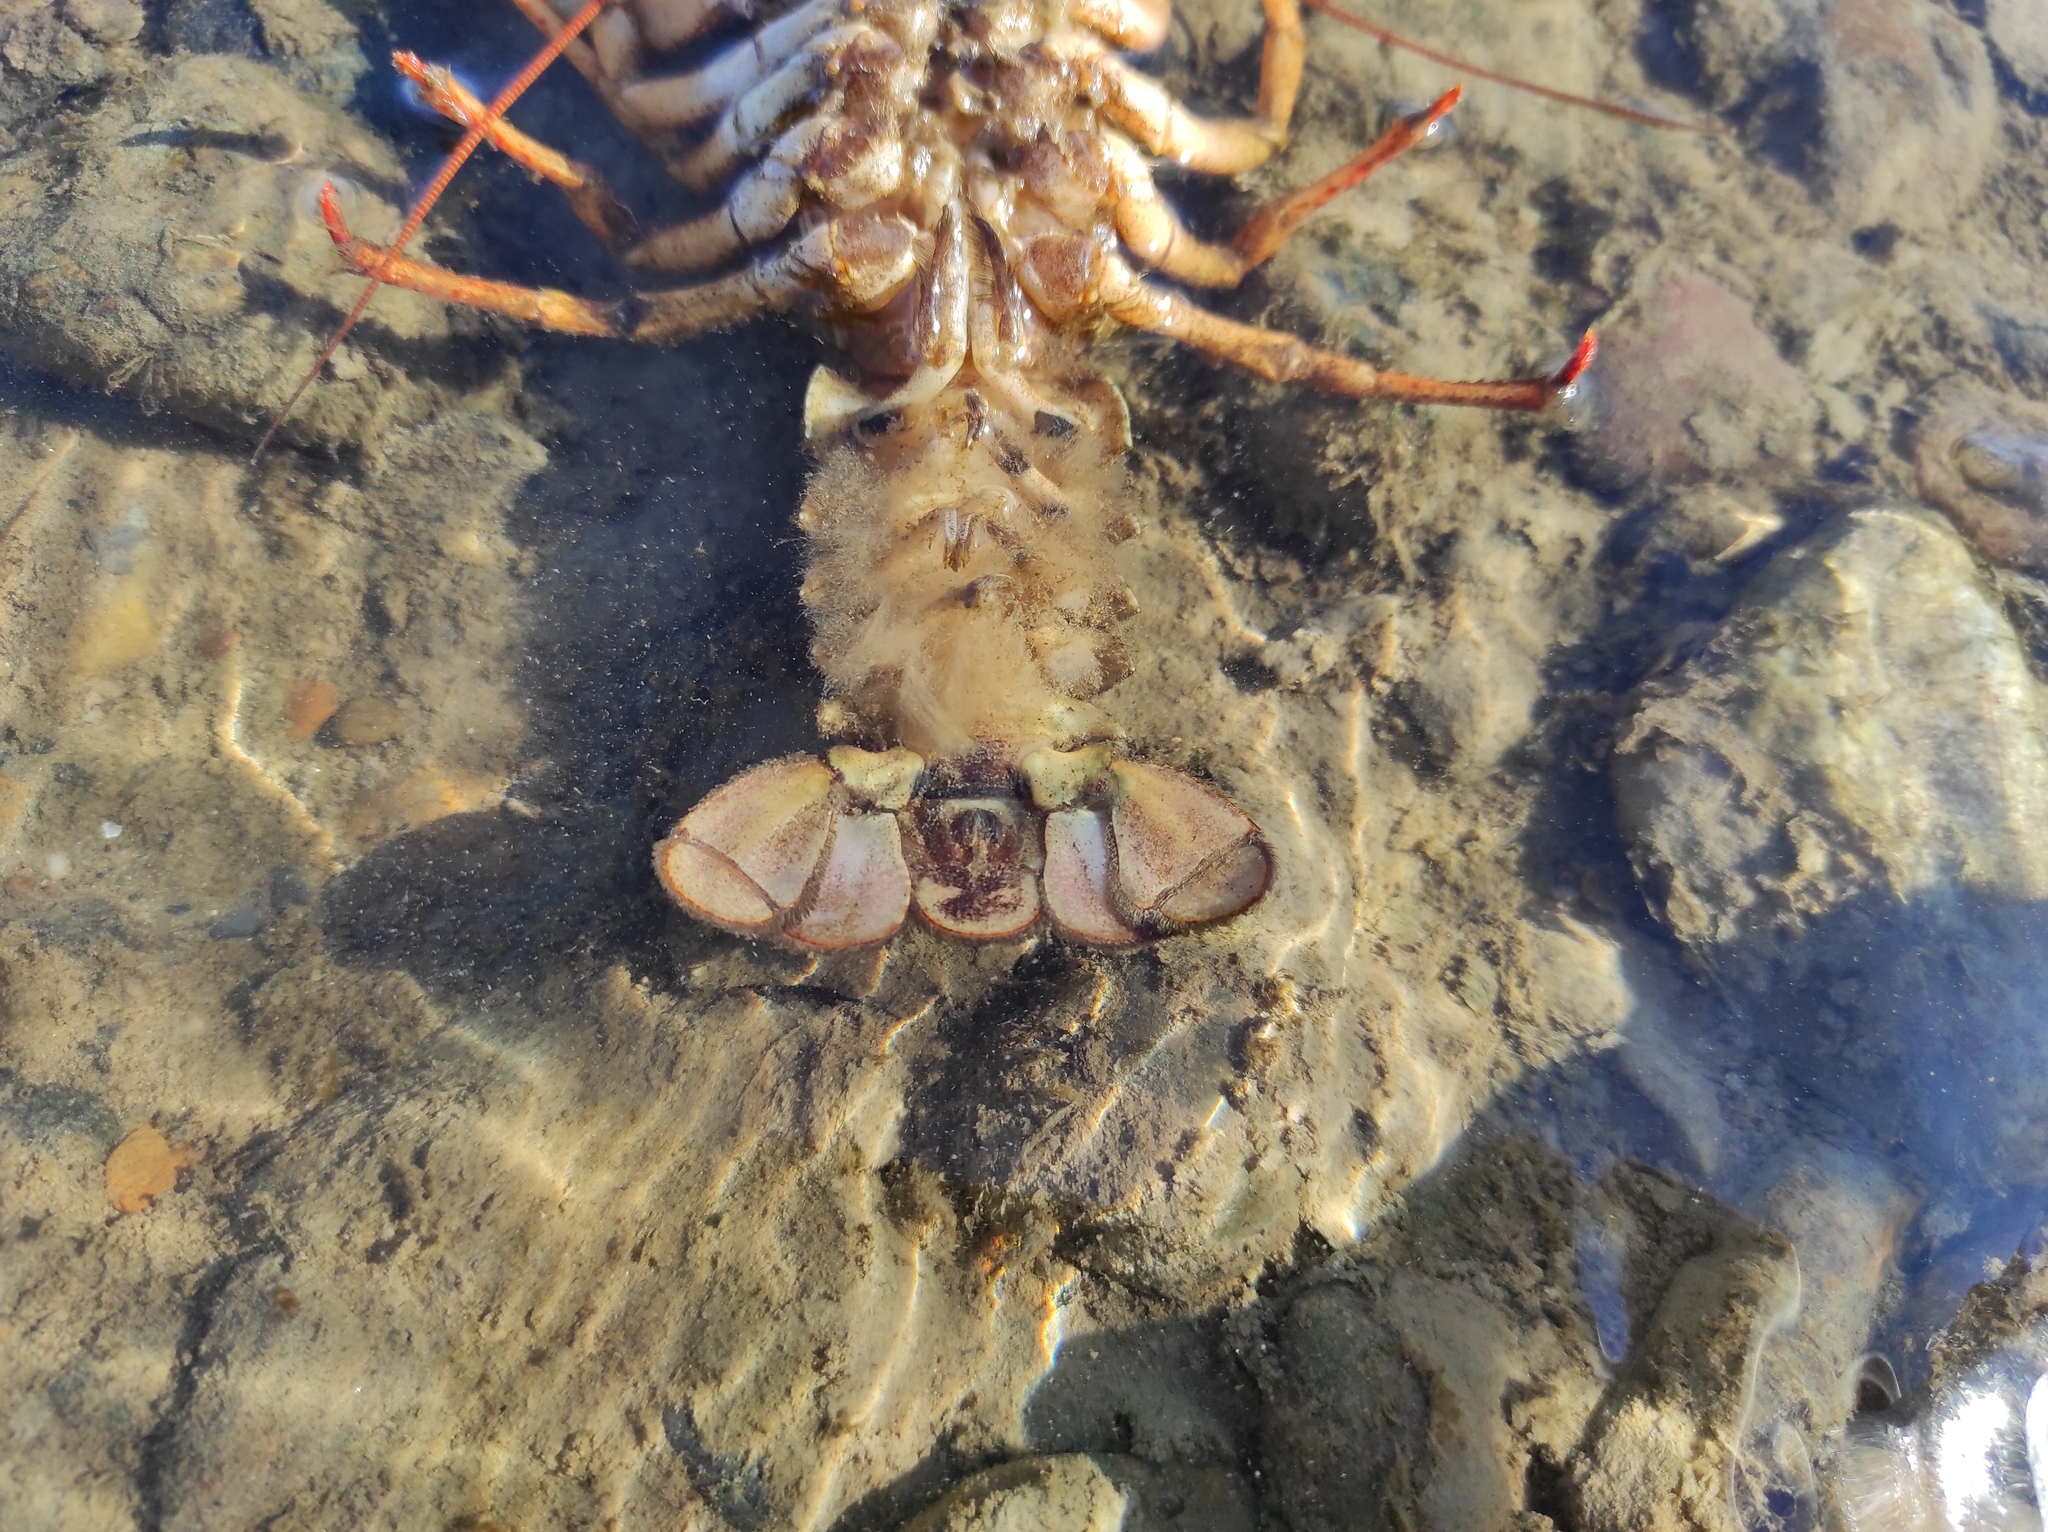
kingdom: Animalia
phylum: Arthropoda
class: Malacostraca
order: Decapoda
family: Astacidae
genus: Pontastacus
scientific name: Pontastacus leptodactylus
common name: Danube crayfish
